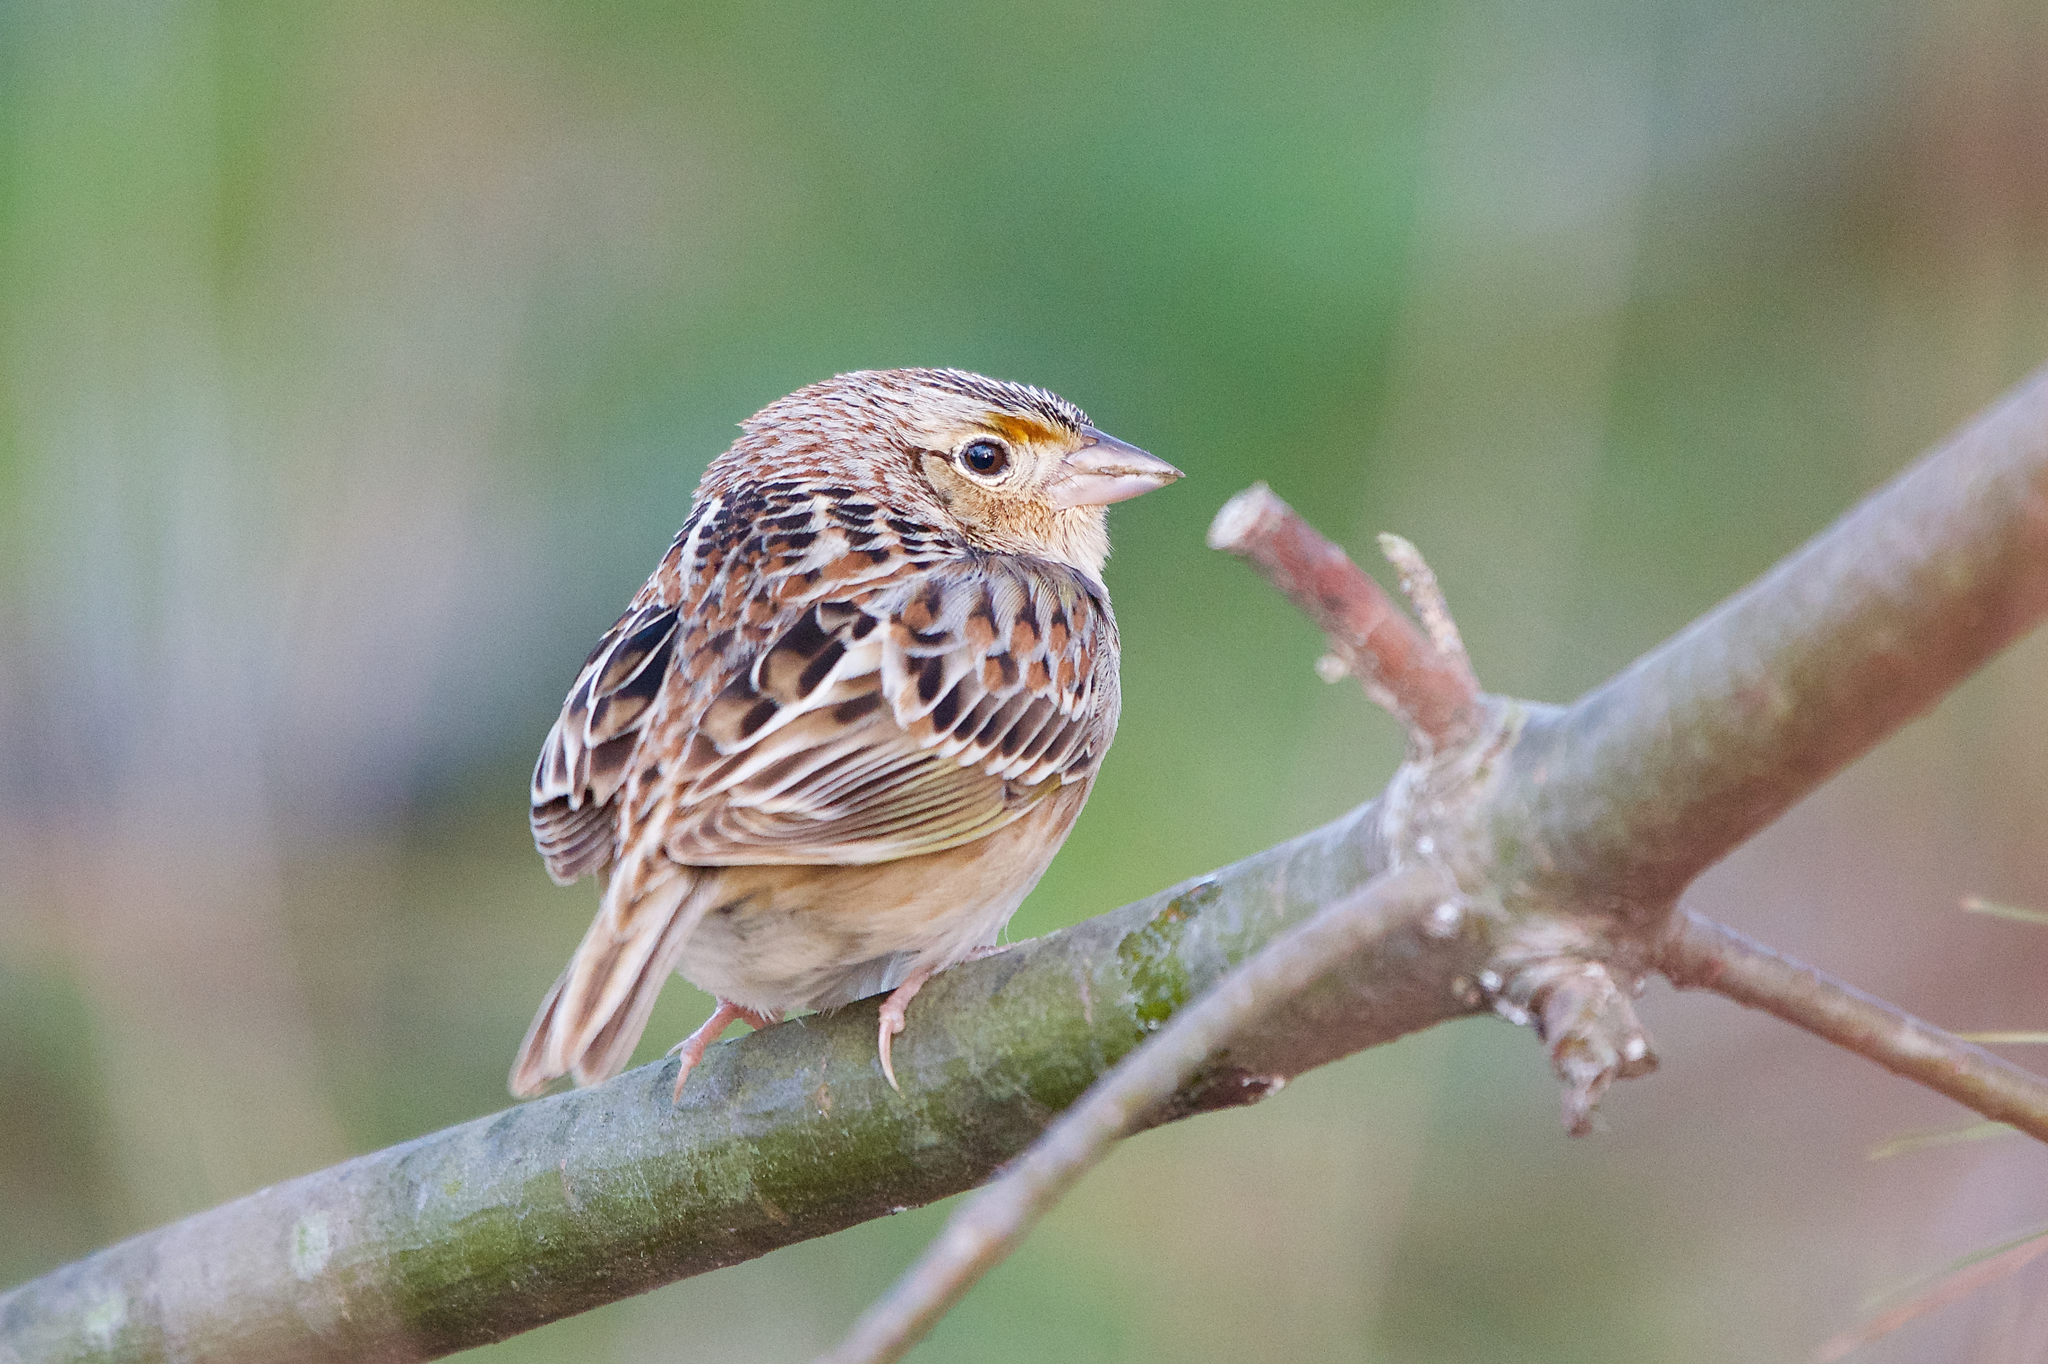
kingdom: Animalia
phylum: Chordata
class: Aves
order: Passeriformes
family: Passerellidae
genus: Ammodramus
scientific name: Ammodramus savannarum
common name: Grasshopper sparrow
